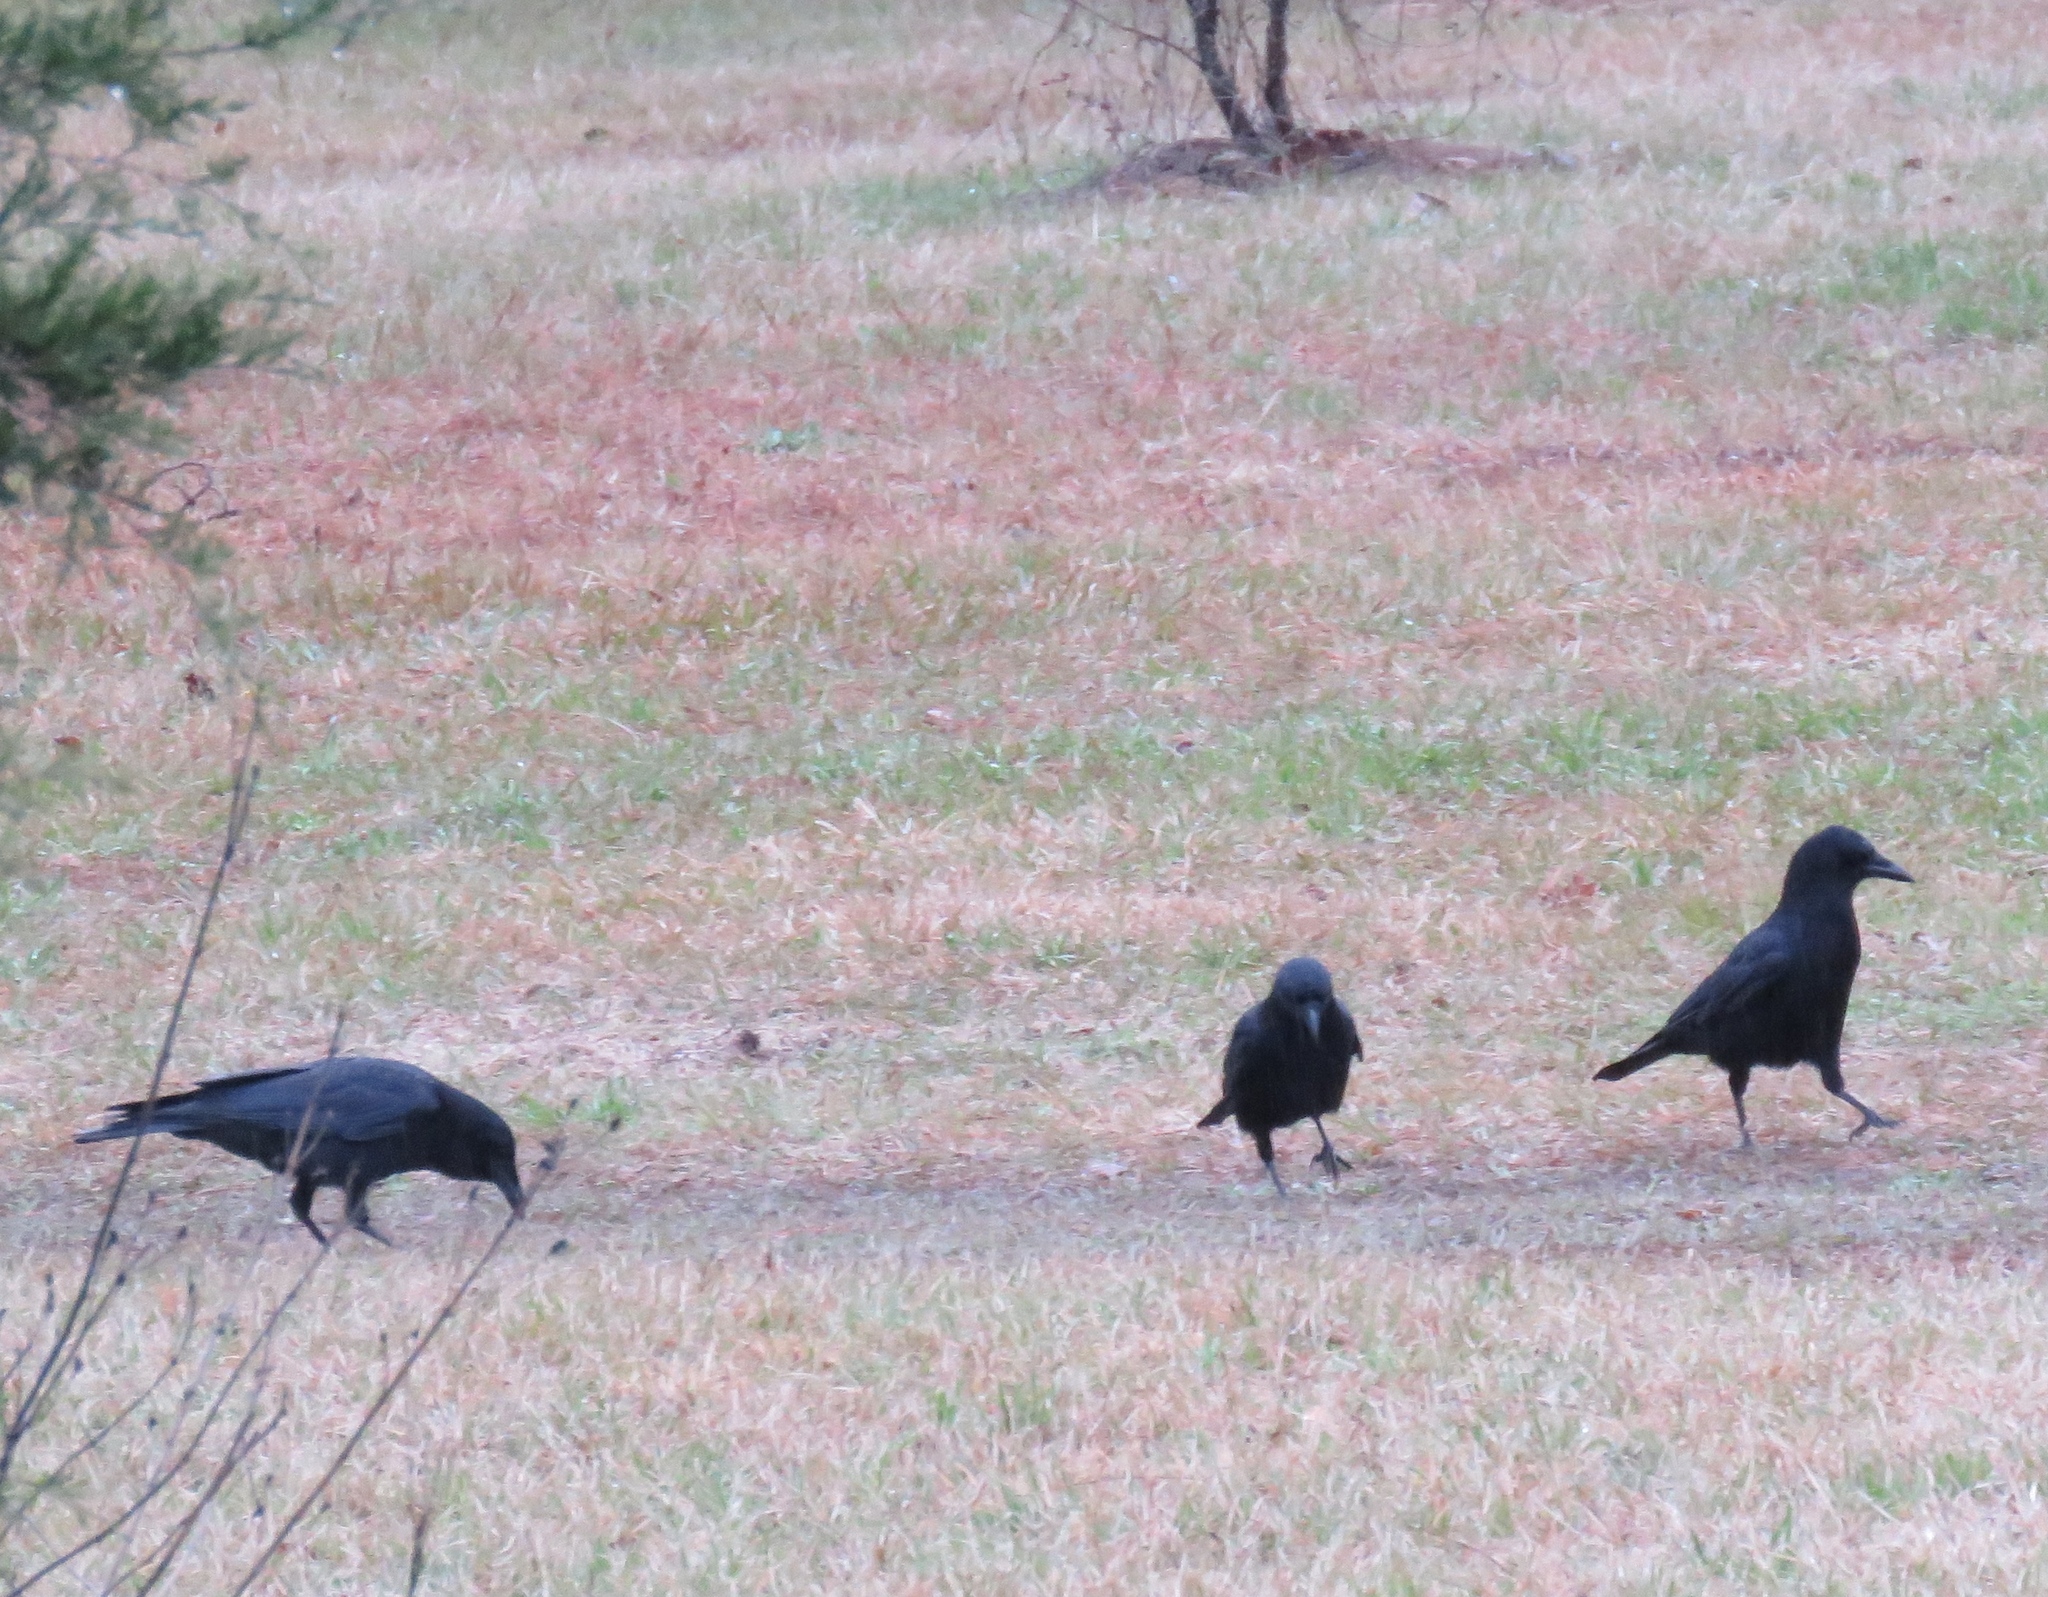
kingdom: Animalia
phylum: Chordata
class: Aves
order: Passeriformes
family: Corvidae
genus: Corvus
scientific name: Corvus brachyrhynchos
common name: American crow
